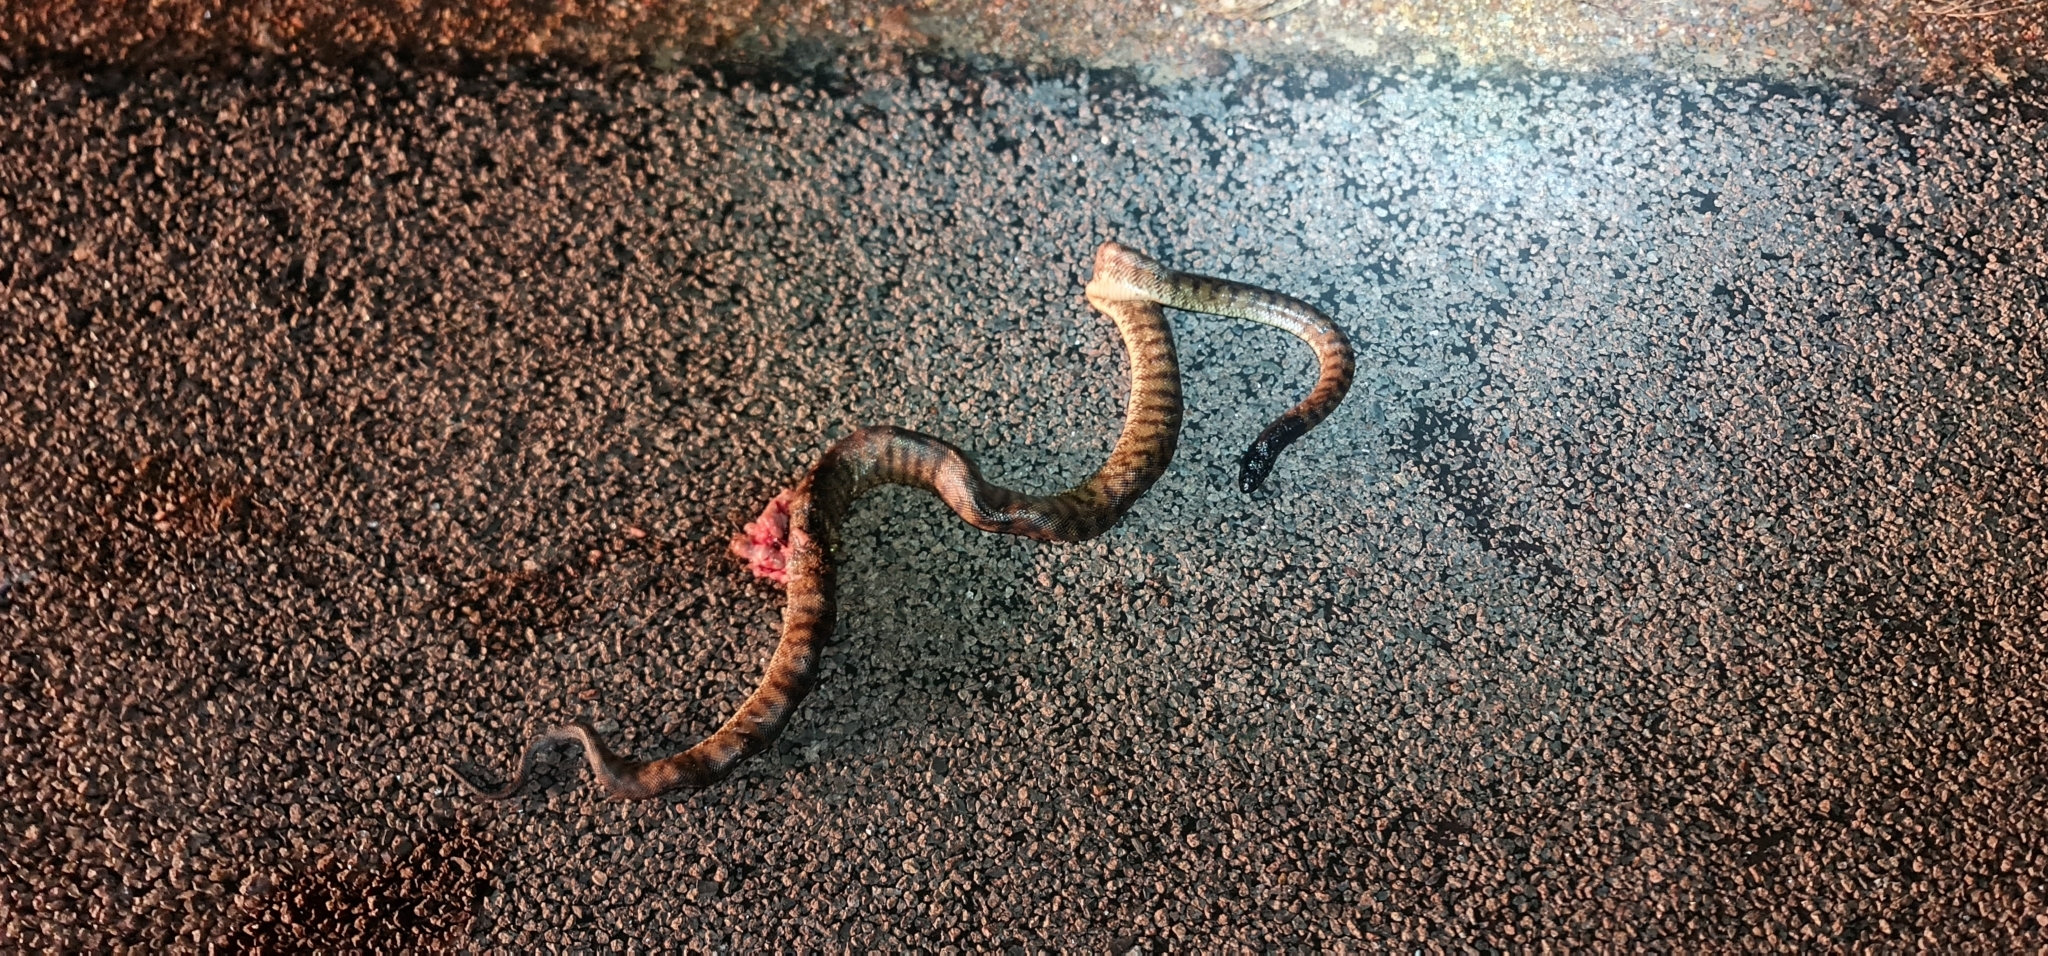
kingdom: Animalia
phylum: Chordata
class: Squamata
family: Pythonidae
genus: Aspidites
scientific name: Aspidites melanocephalus
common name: Black-headed python
